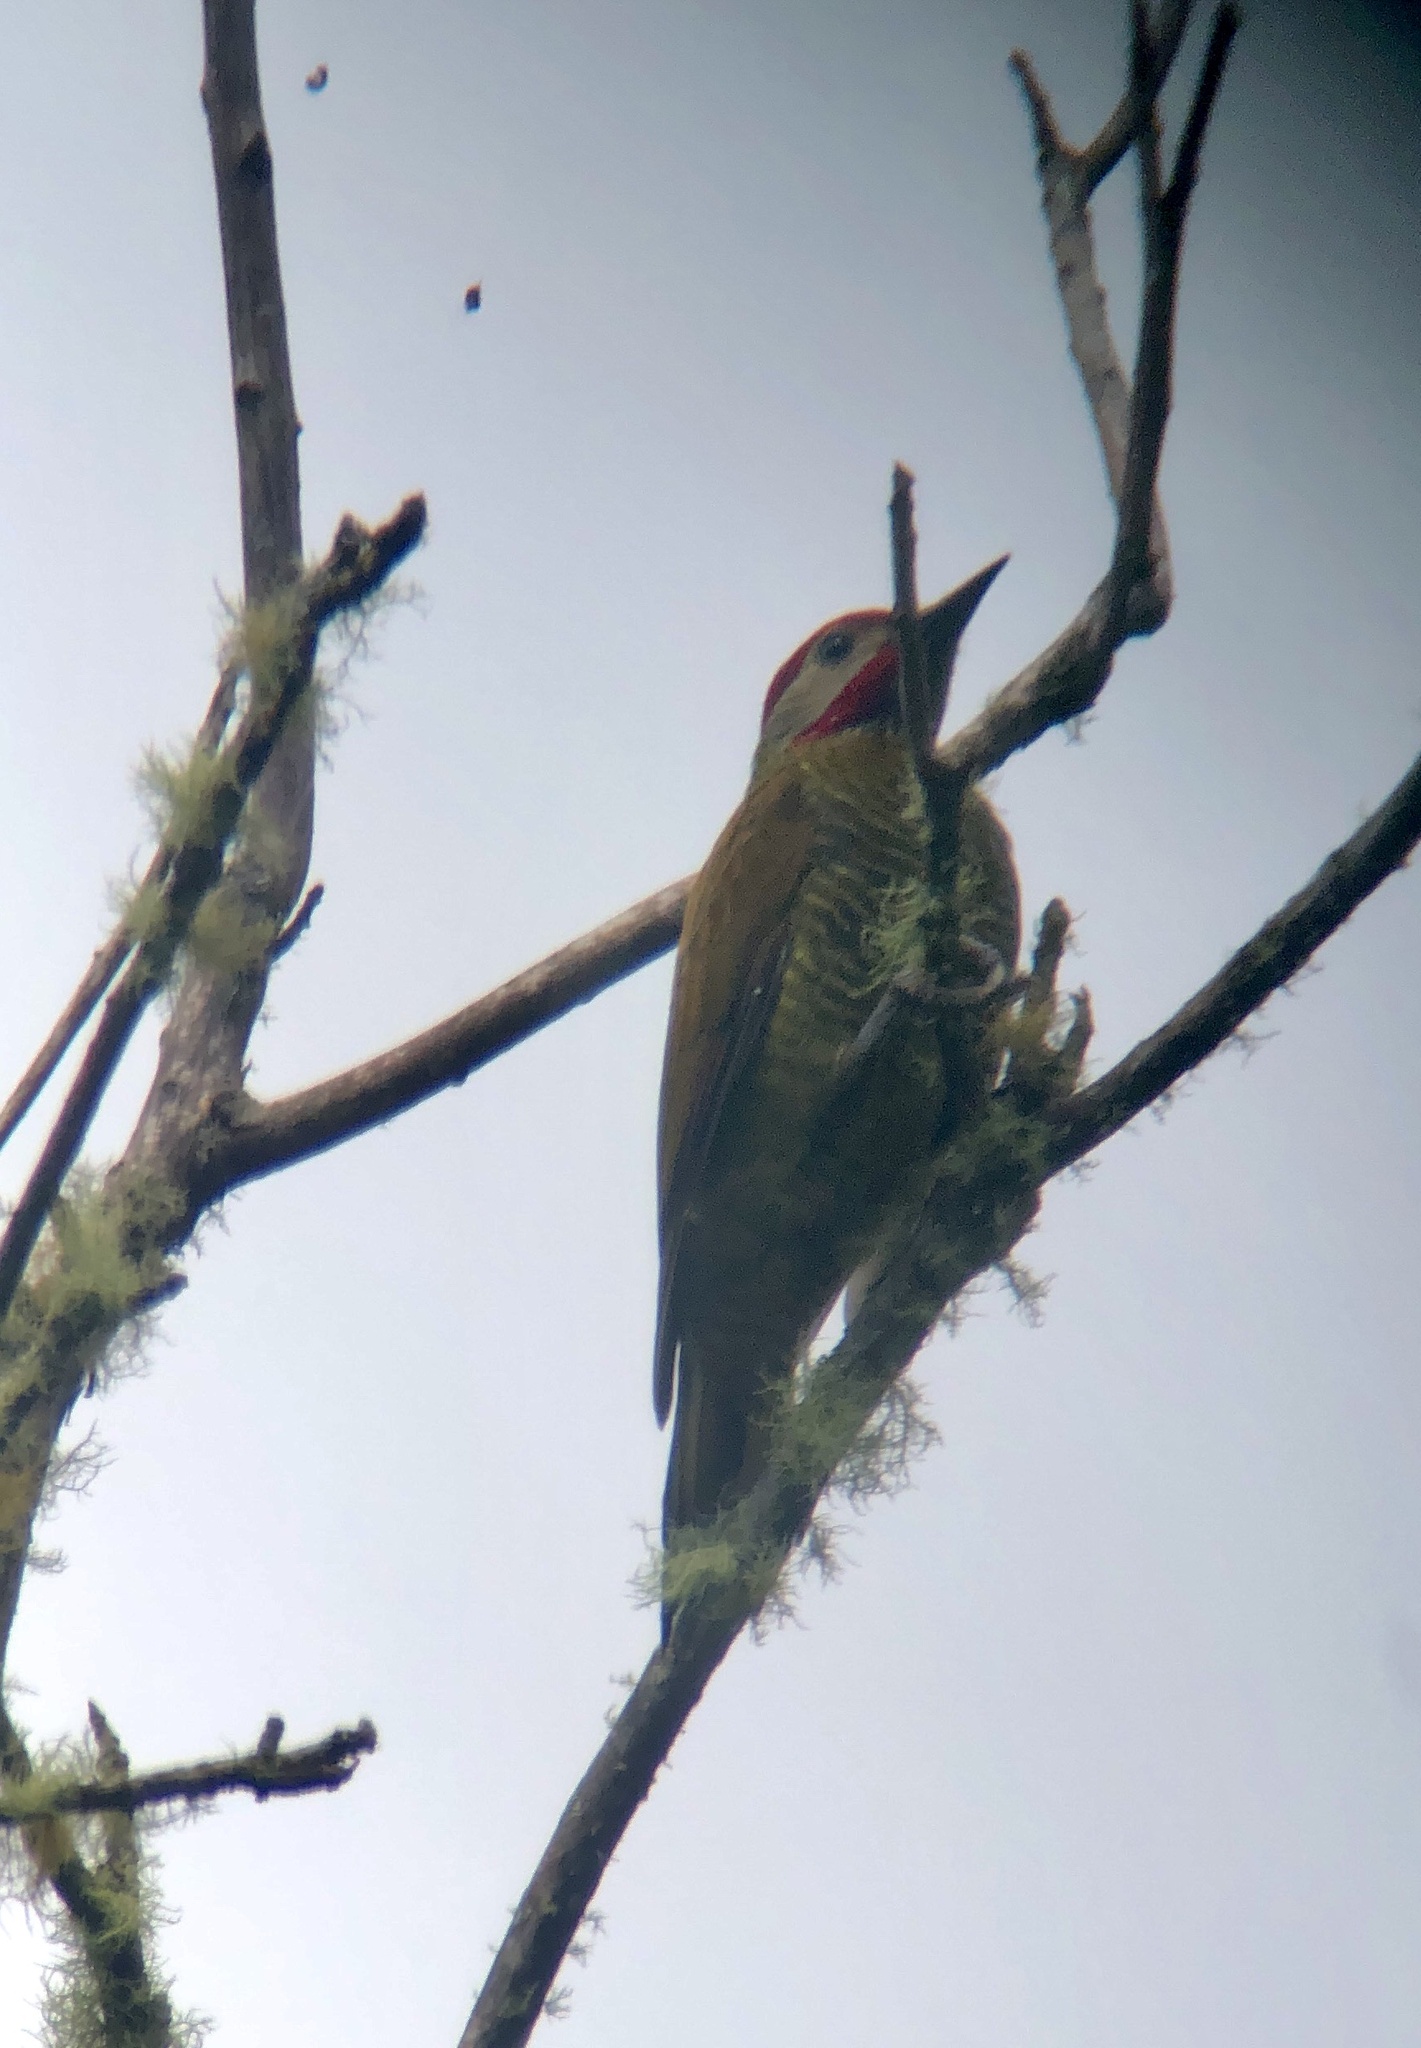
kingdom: Animalia
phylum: Chordata
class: Aves
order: Piciformes
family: Picidae
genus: Colaptes
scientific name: Colaptes rubiginosus
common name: Golden-olive woodpecker
